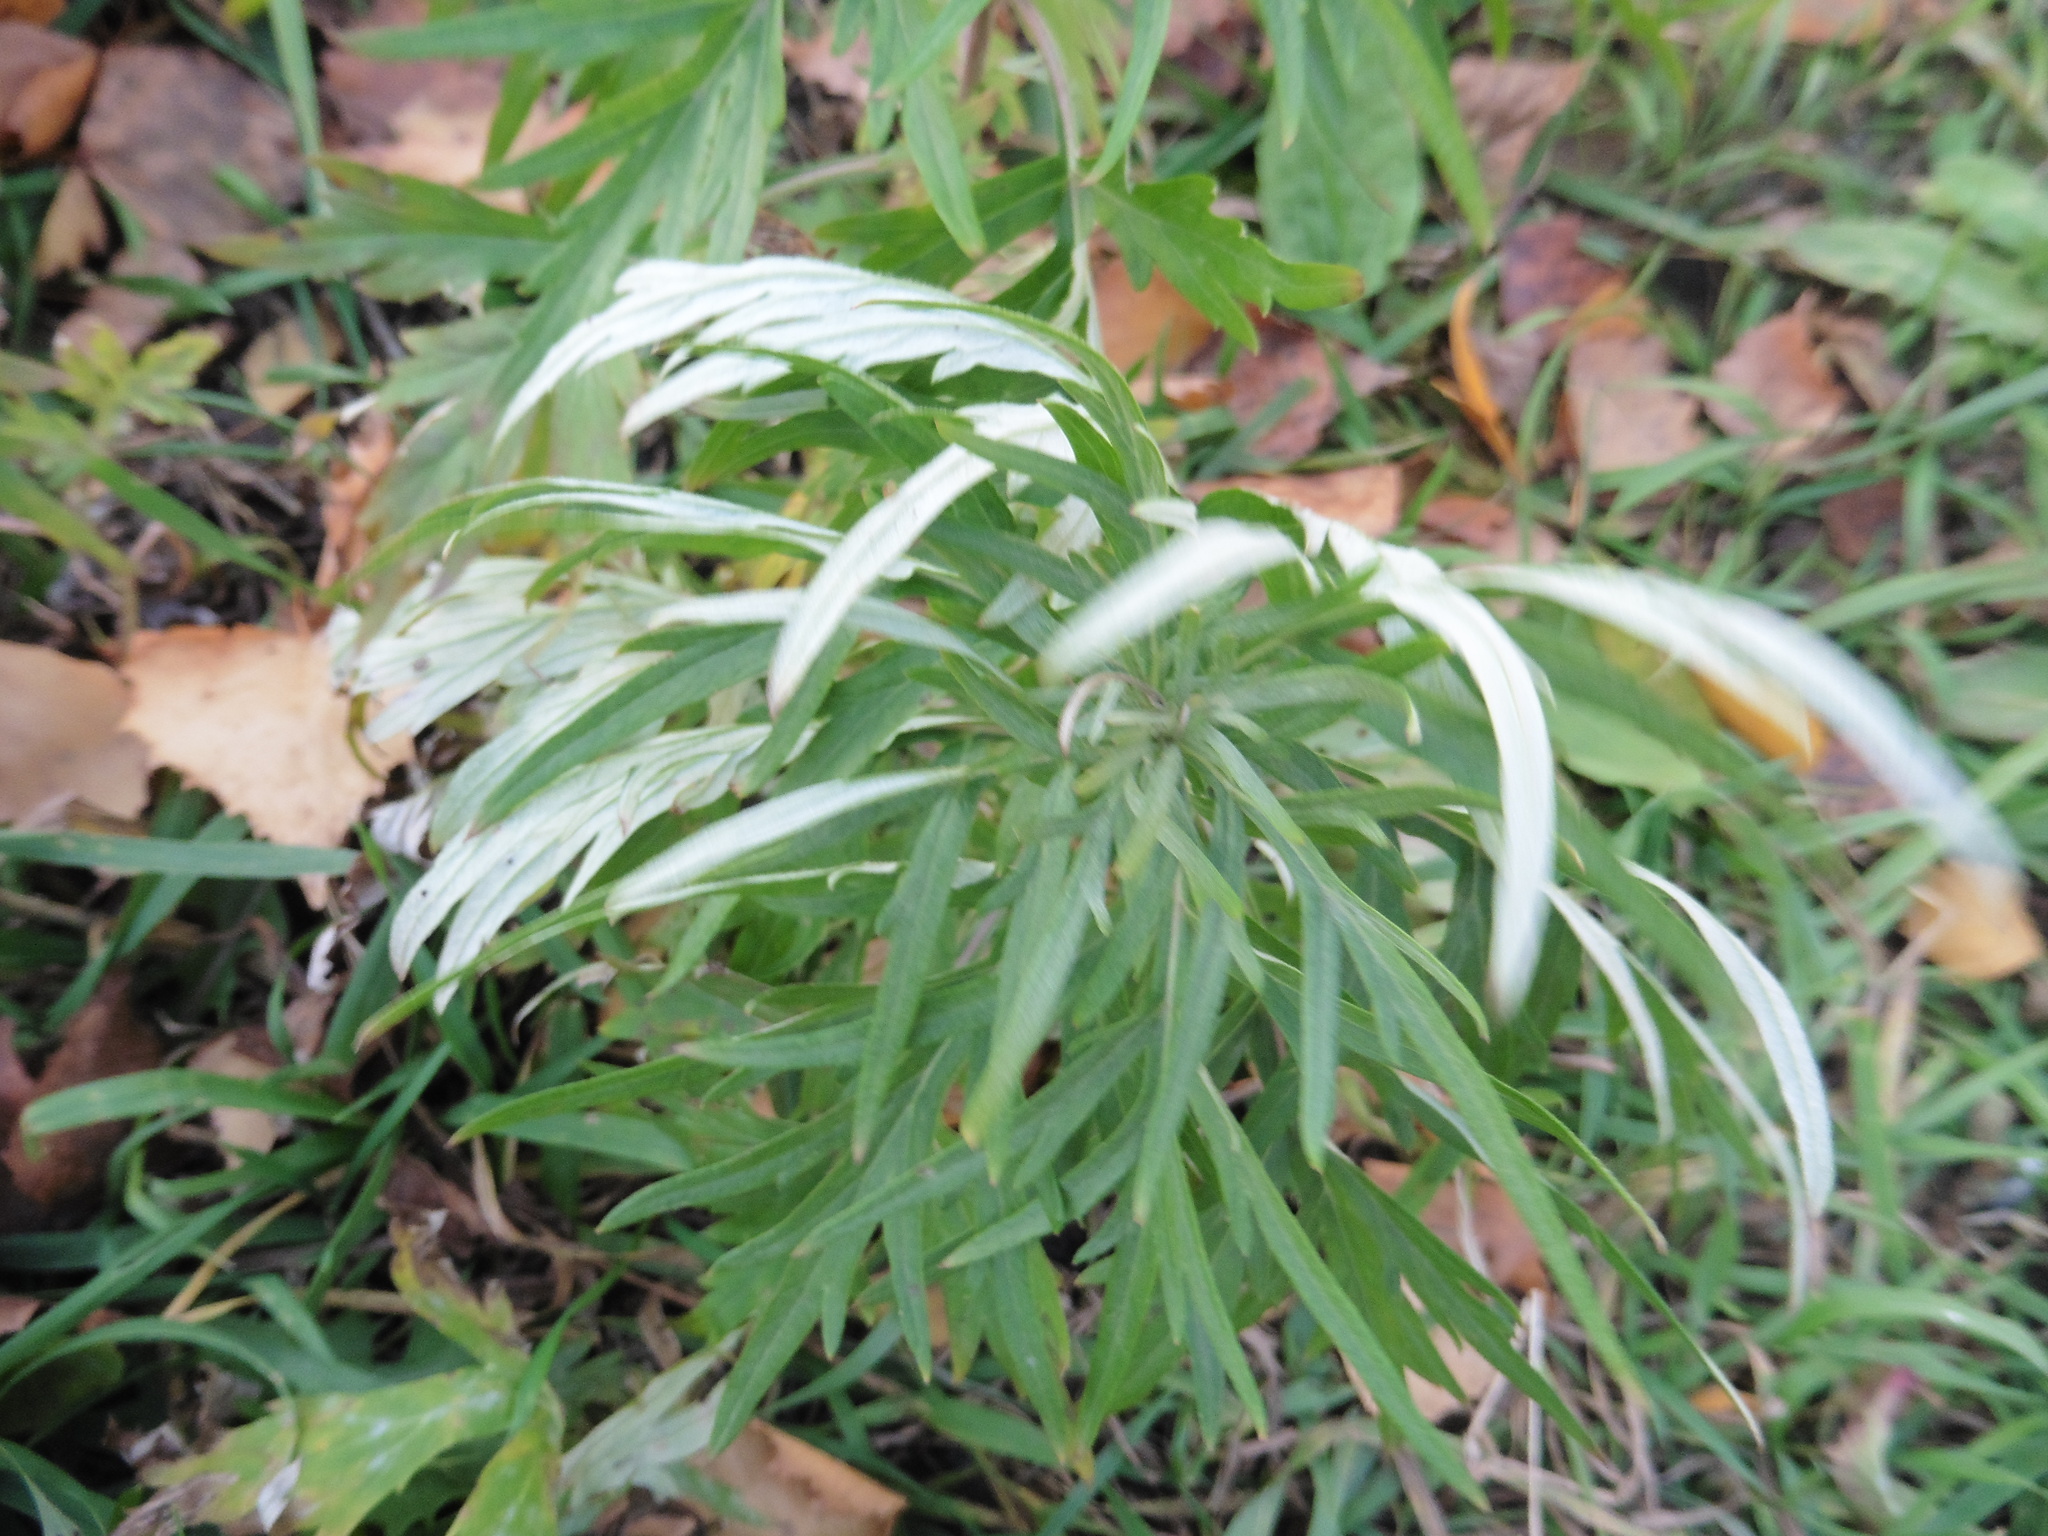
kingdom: Plantae
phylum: Tracheophyta
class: Magnoliopsida
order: Asterales
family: Asteraceae
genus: Artemisia
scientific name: Artemisia vulgaris
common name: Mugwort
